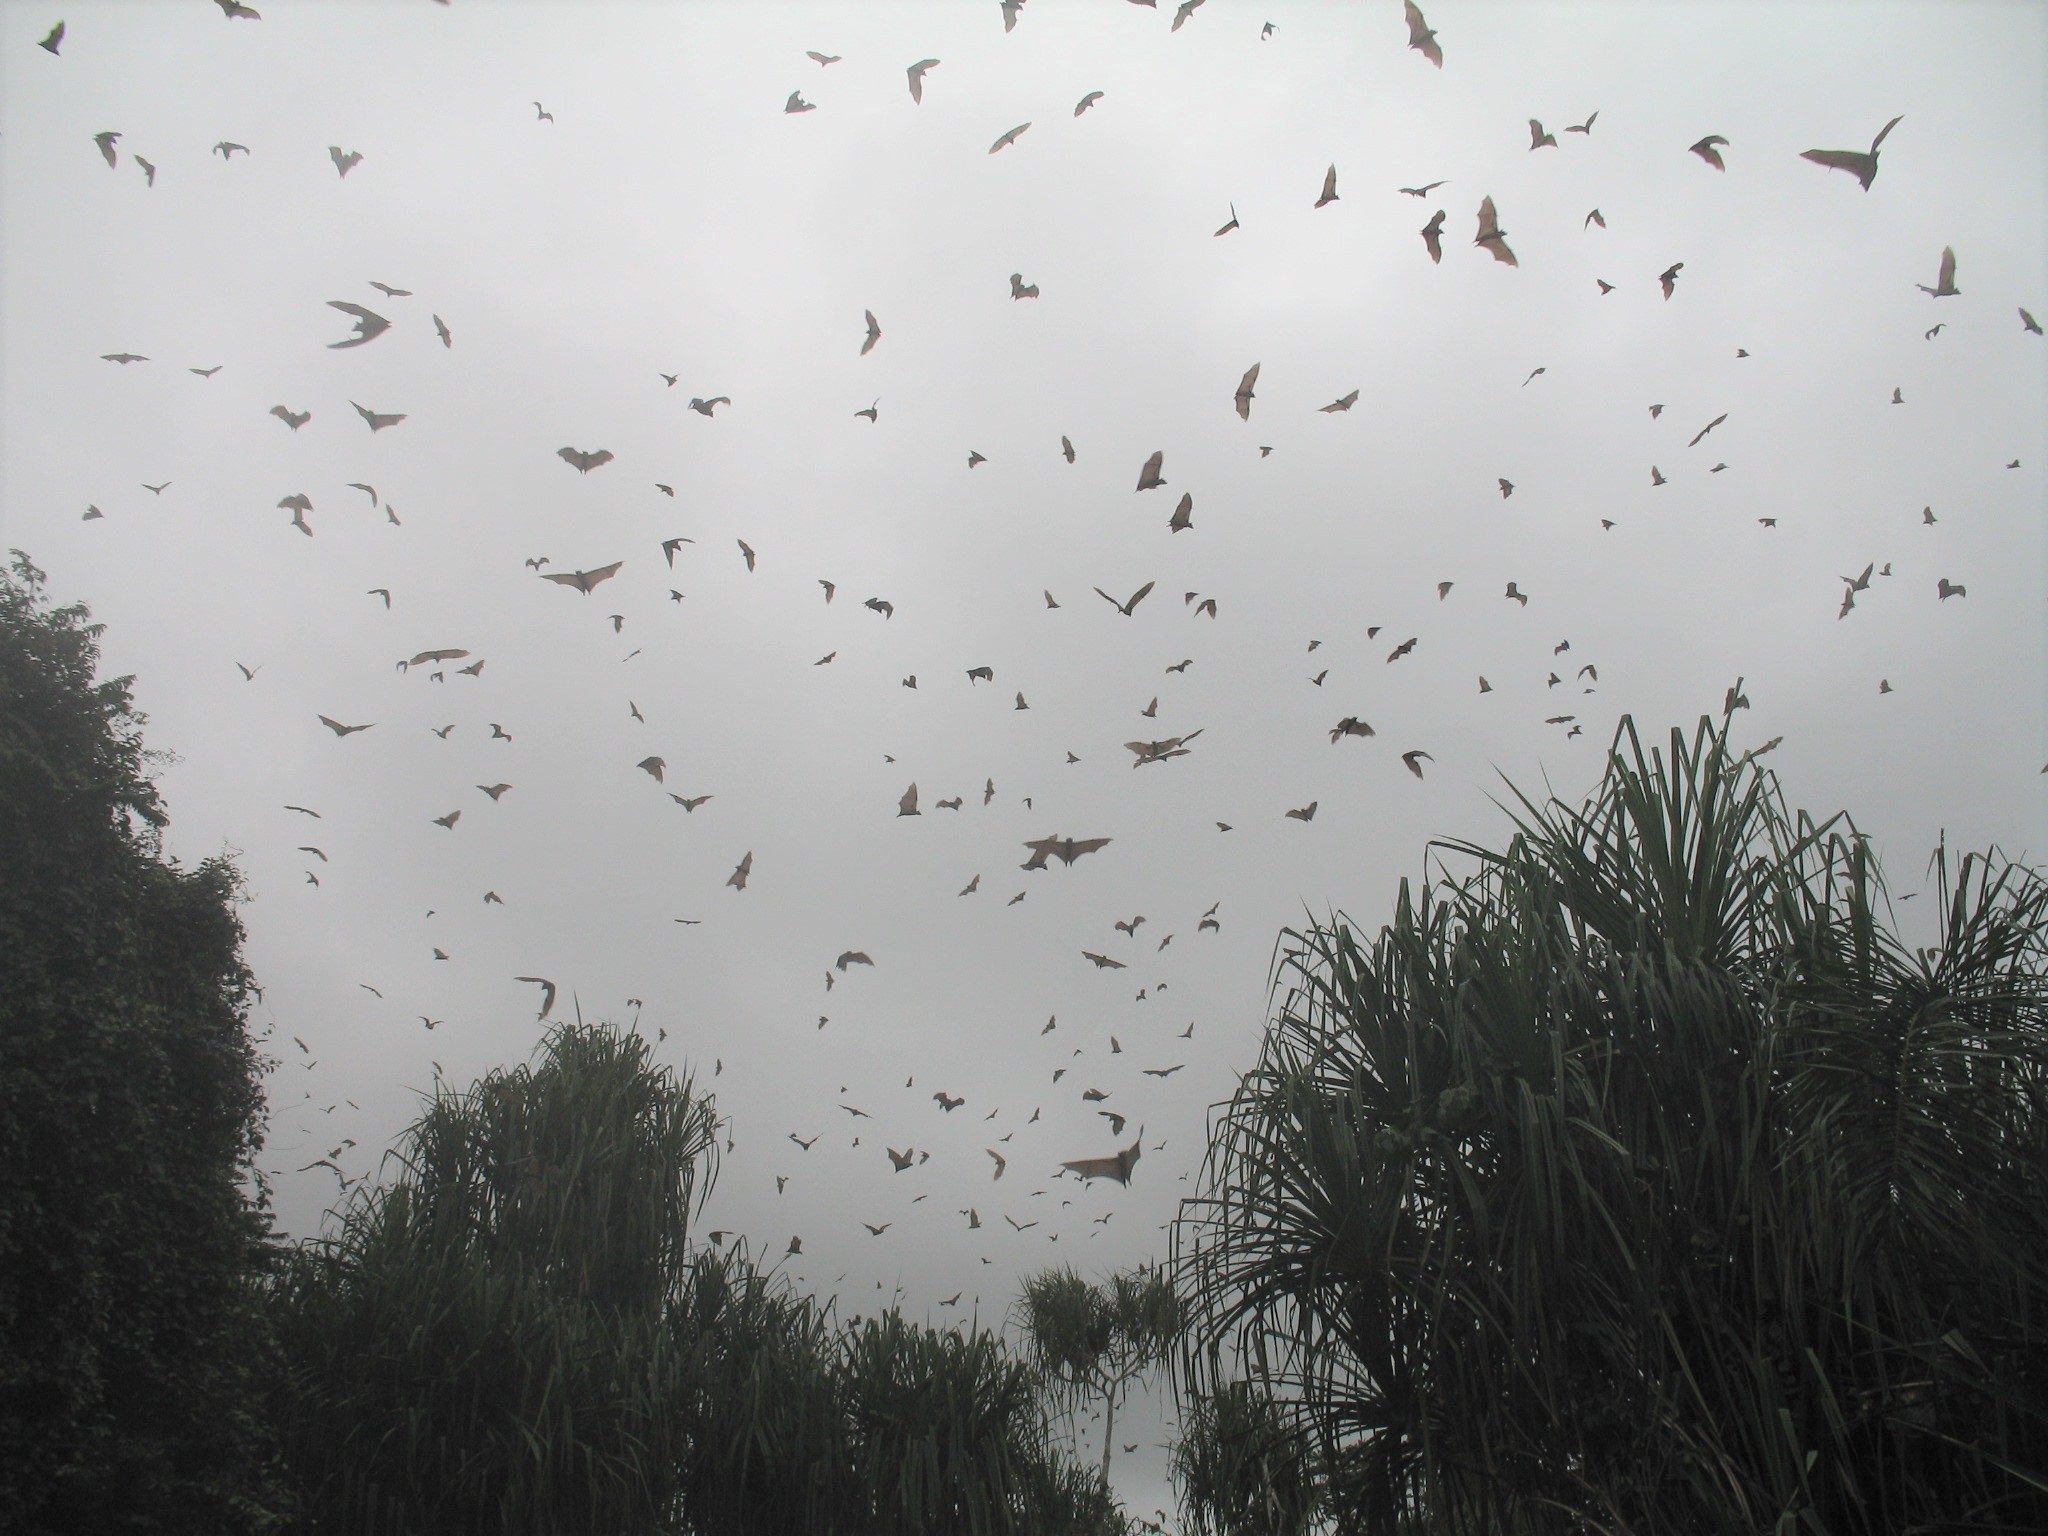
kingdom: Animalia
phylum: Chordata
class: Mammalia
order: Chiroptera
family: Pteropodidae
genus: Eidolon
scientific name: Eidolon helvum
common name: Straw-colored fruit bat
